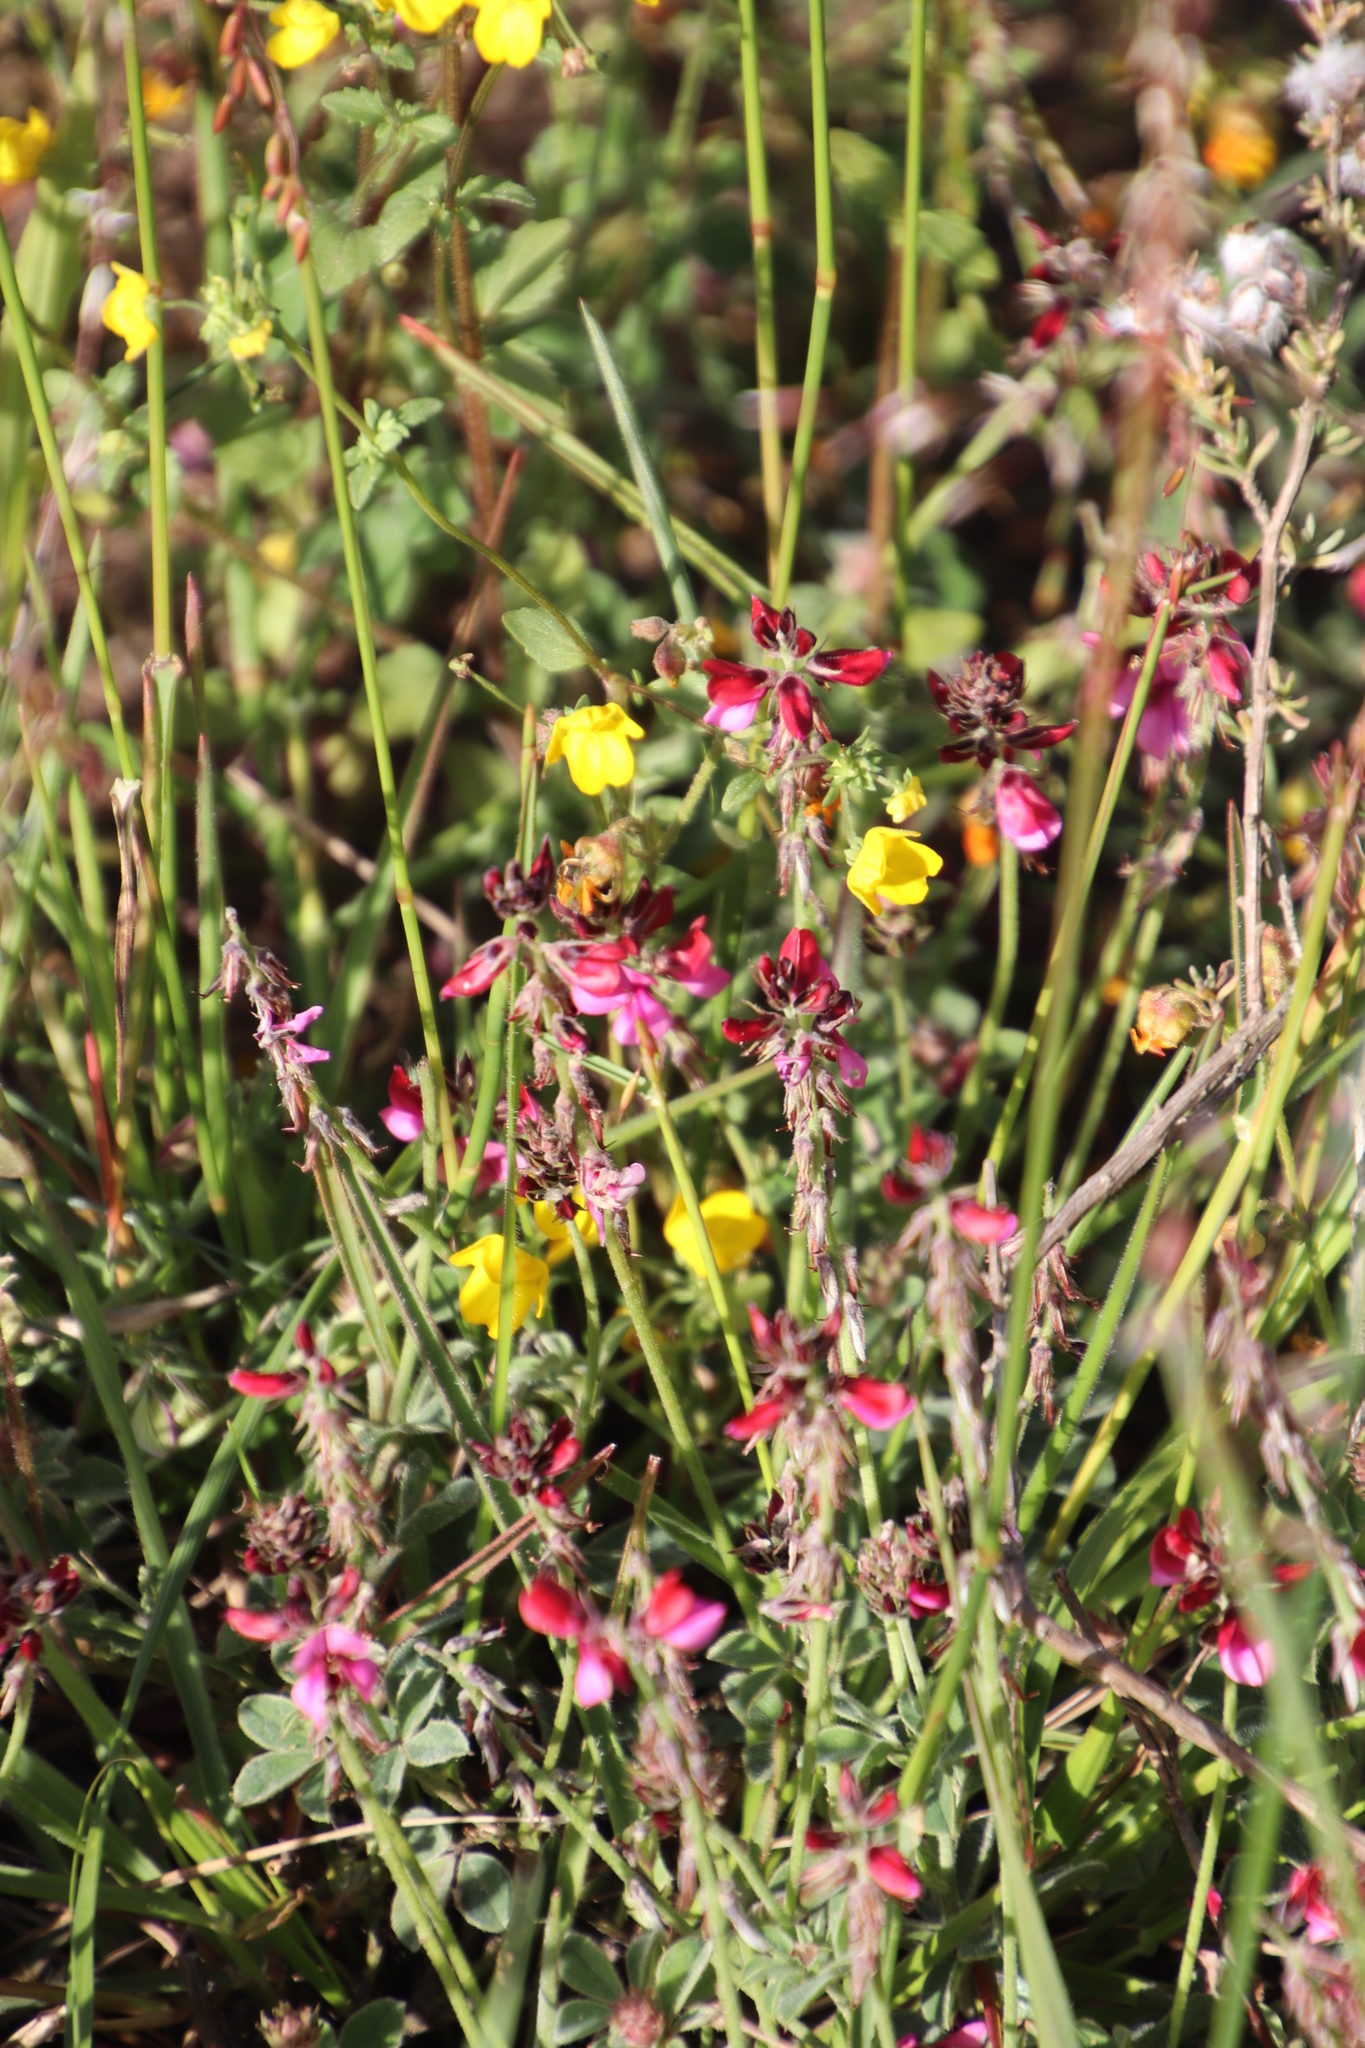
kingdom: Plantae
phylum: Tracheophyta
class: Magnoliopsida
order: Fabales
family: Fabaceae
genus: Indigofera
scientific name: Indigofera incana
